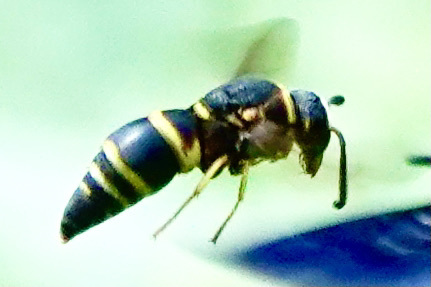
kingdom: Animalia
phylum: Arthropoda
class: Insecta
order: Hymenoptera
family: Eumenidae
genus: Euodynerus
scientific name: Euodynerus hidalgo
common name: Wasp
